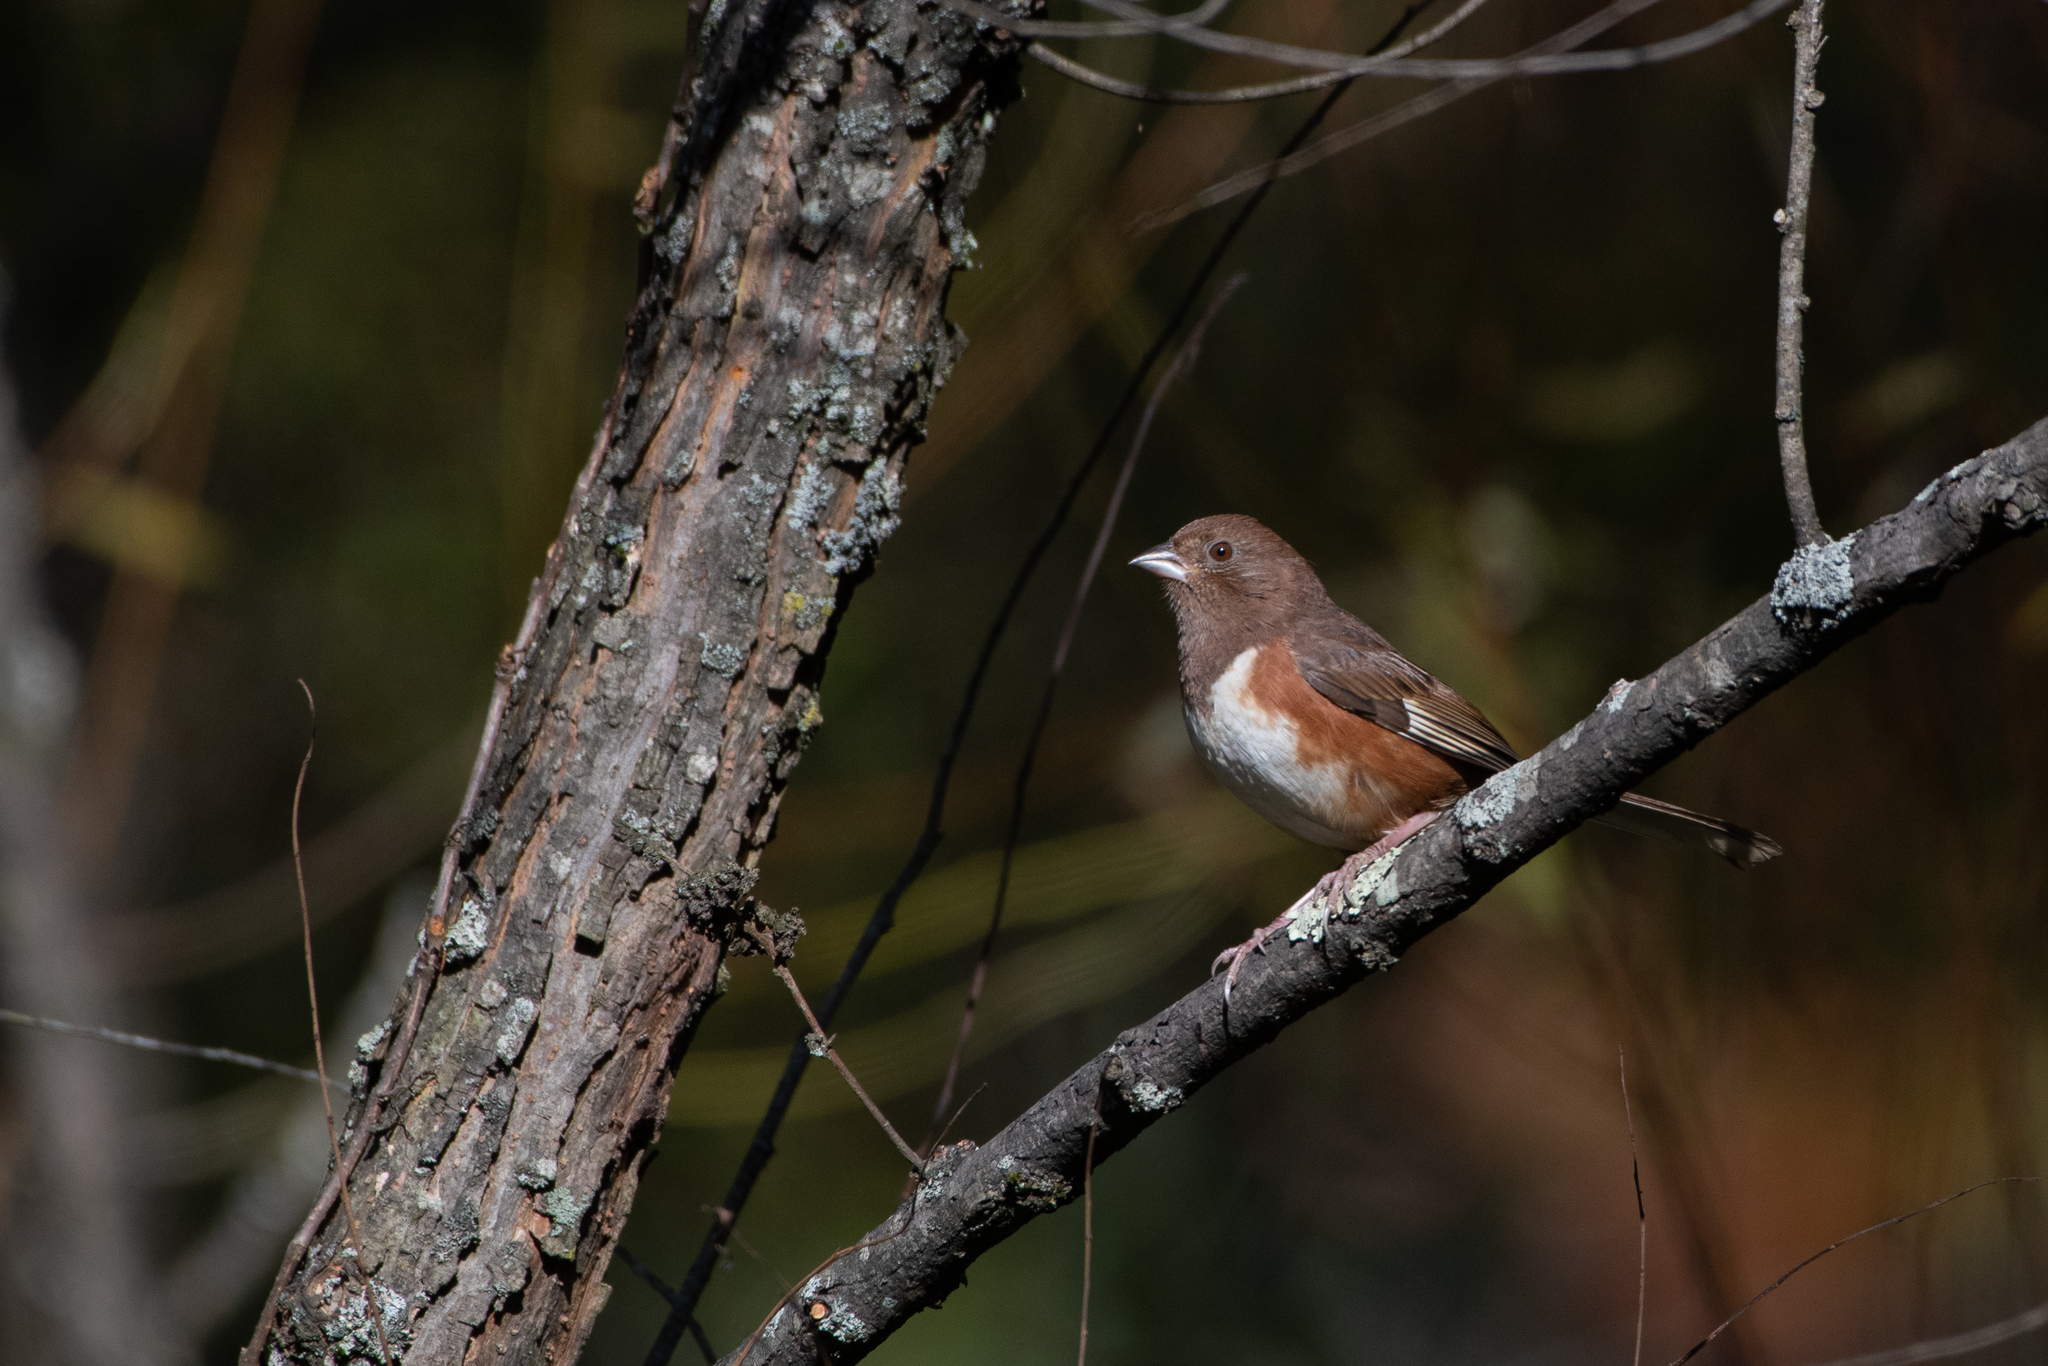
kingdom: Animalia
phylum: Chordata
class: Aves
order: Passeriformes
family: Passerellidae
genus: Pipilo
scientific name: Pipilo erythrophthalmus
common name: Eastern towhee
